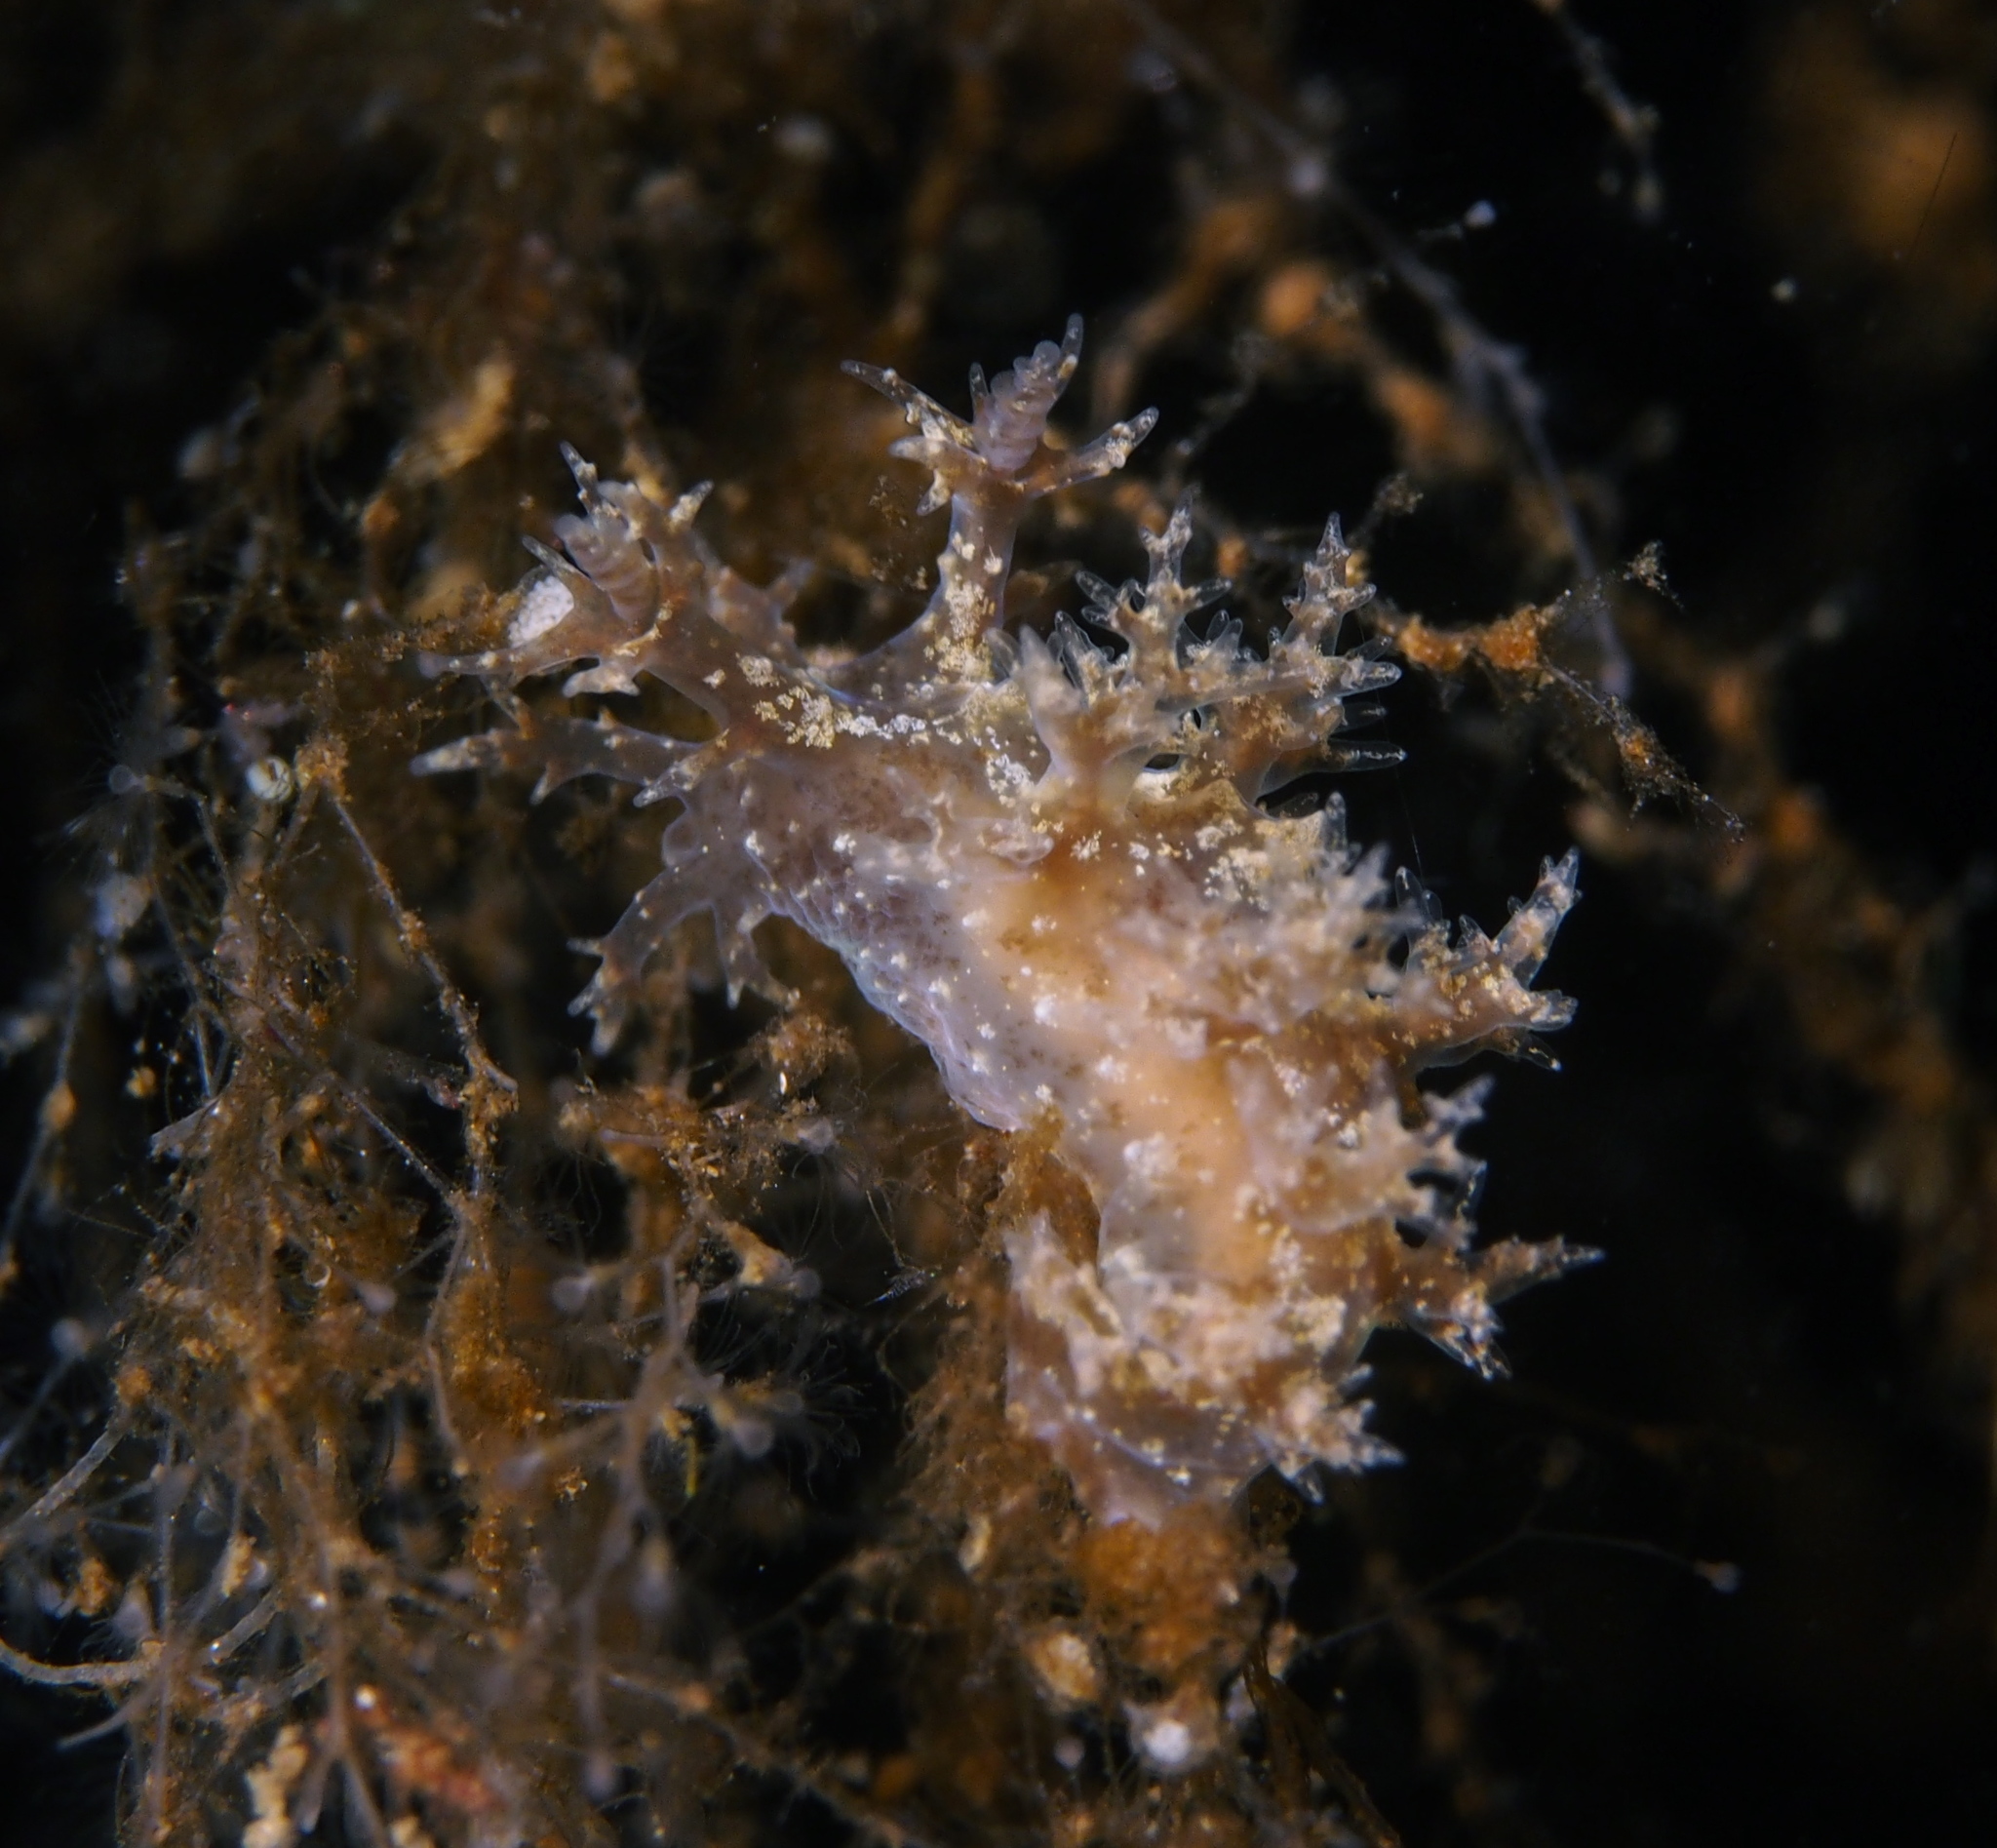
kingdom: Animalia
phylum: Mollusca
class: Gastropoda
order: Nudibranchia
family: Dendronotidae
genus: Dendronotus
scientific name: Dendronotus frondosus
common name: Bushy-backed nudibranch
